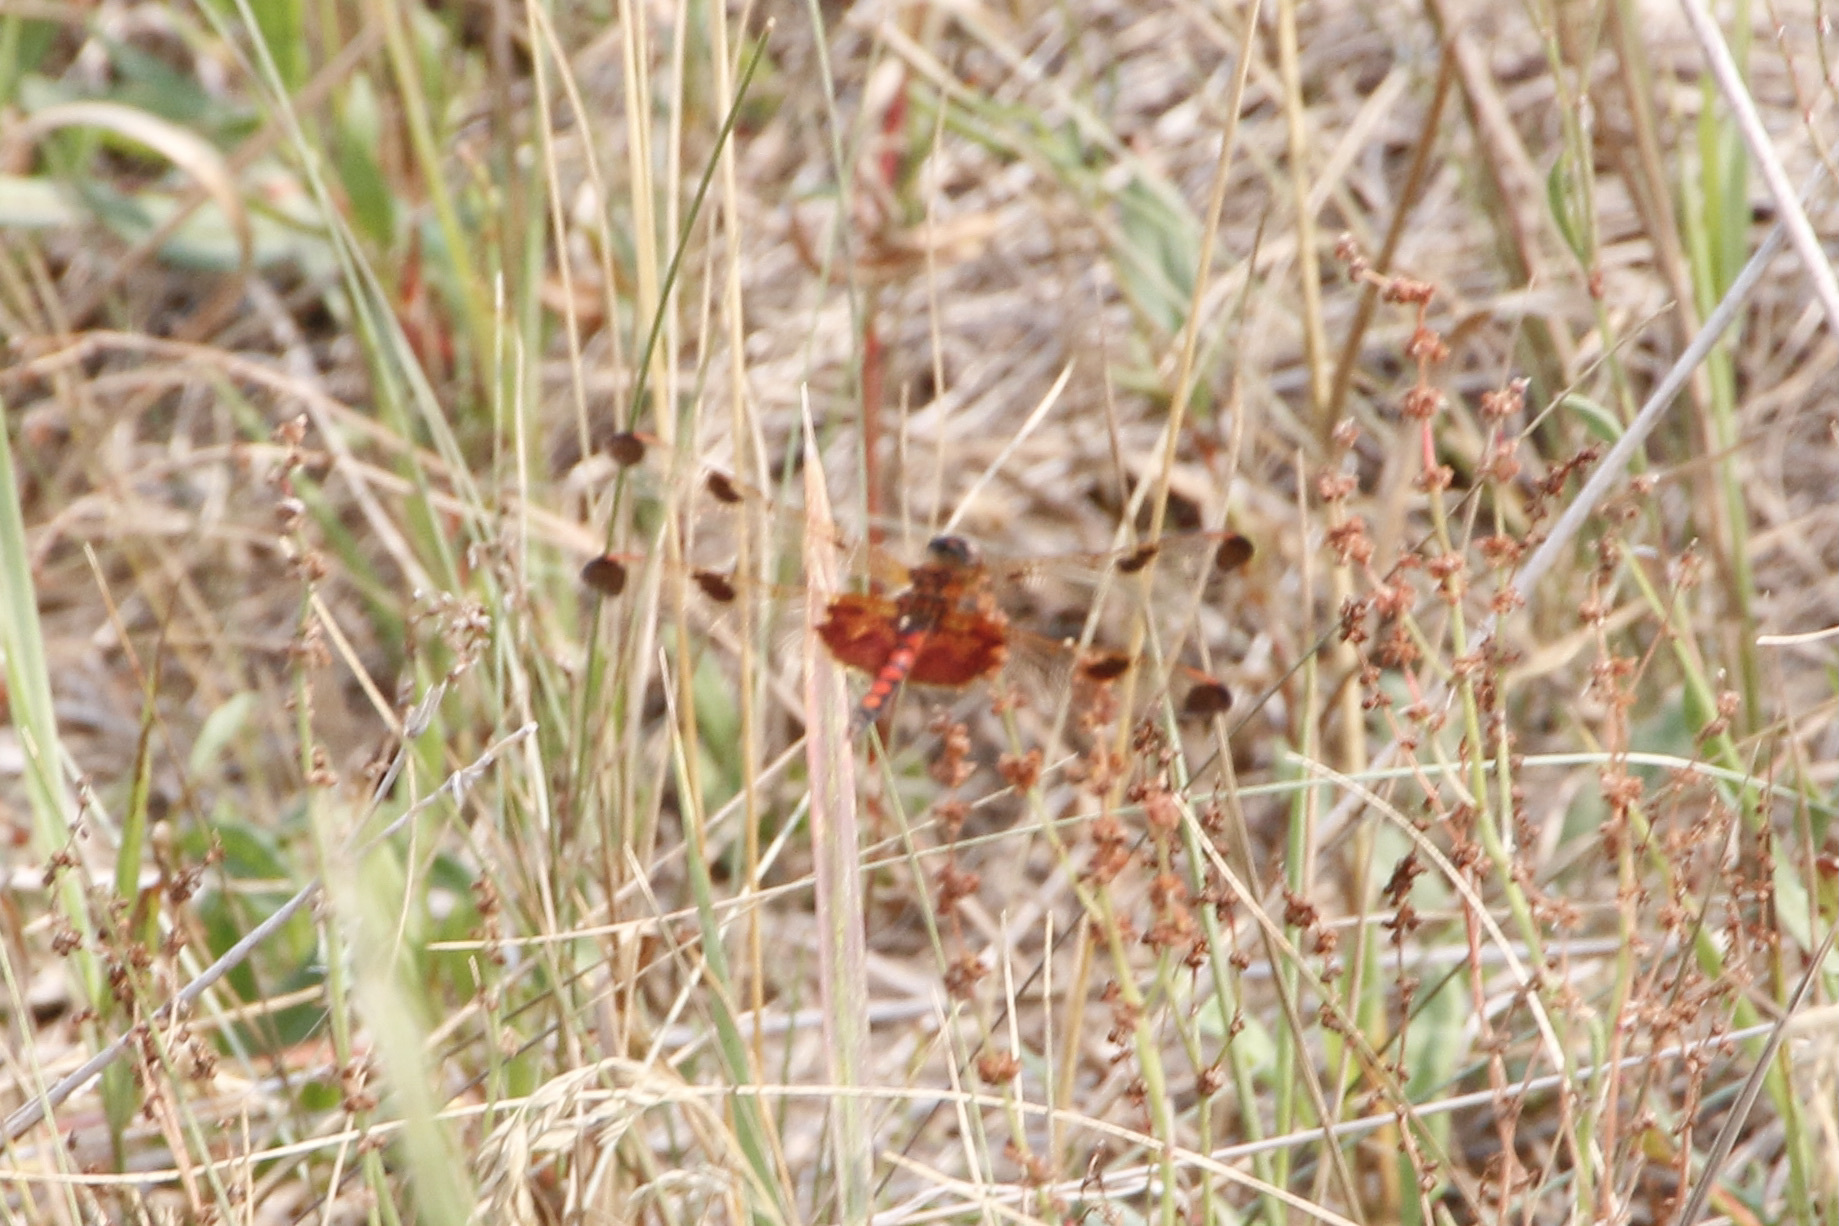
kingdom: Animalia
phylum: Arthropoda
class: Insecta
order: Odonata
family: Libellulidae
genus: Celithemis
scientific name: Celithemis elisa
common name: Calico pennant
